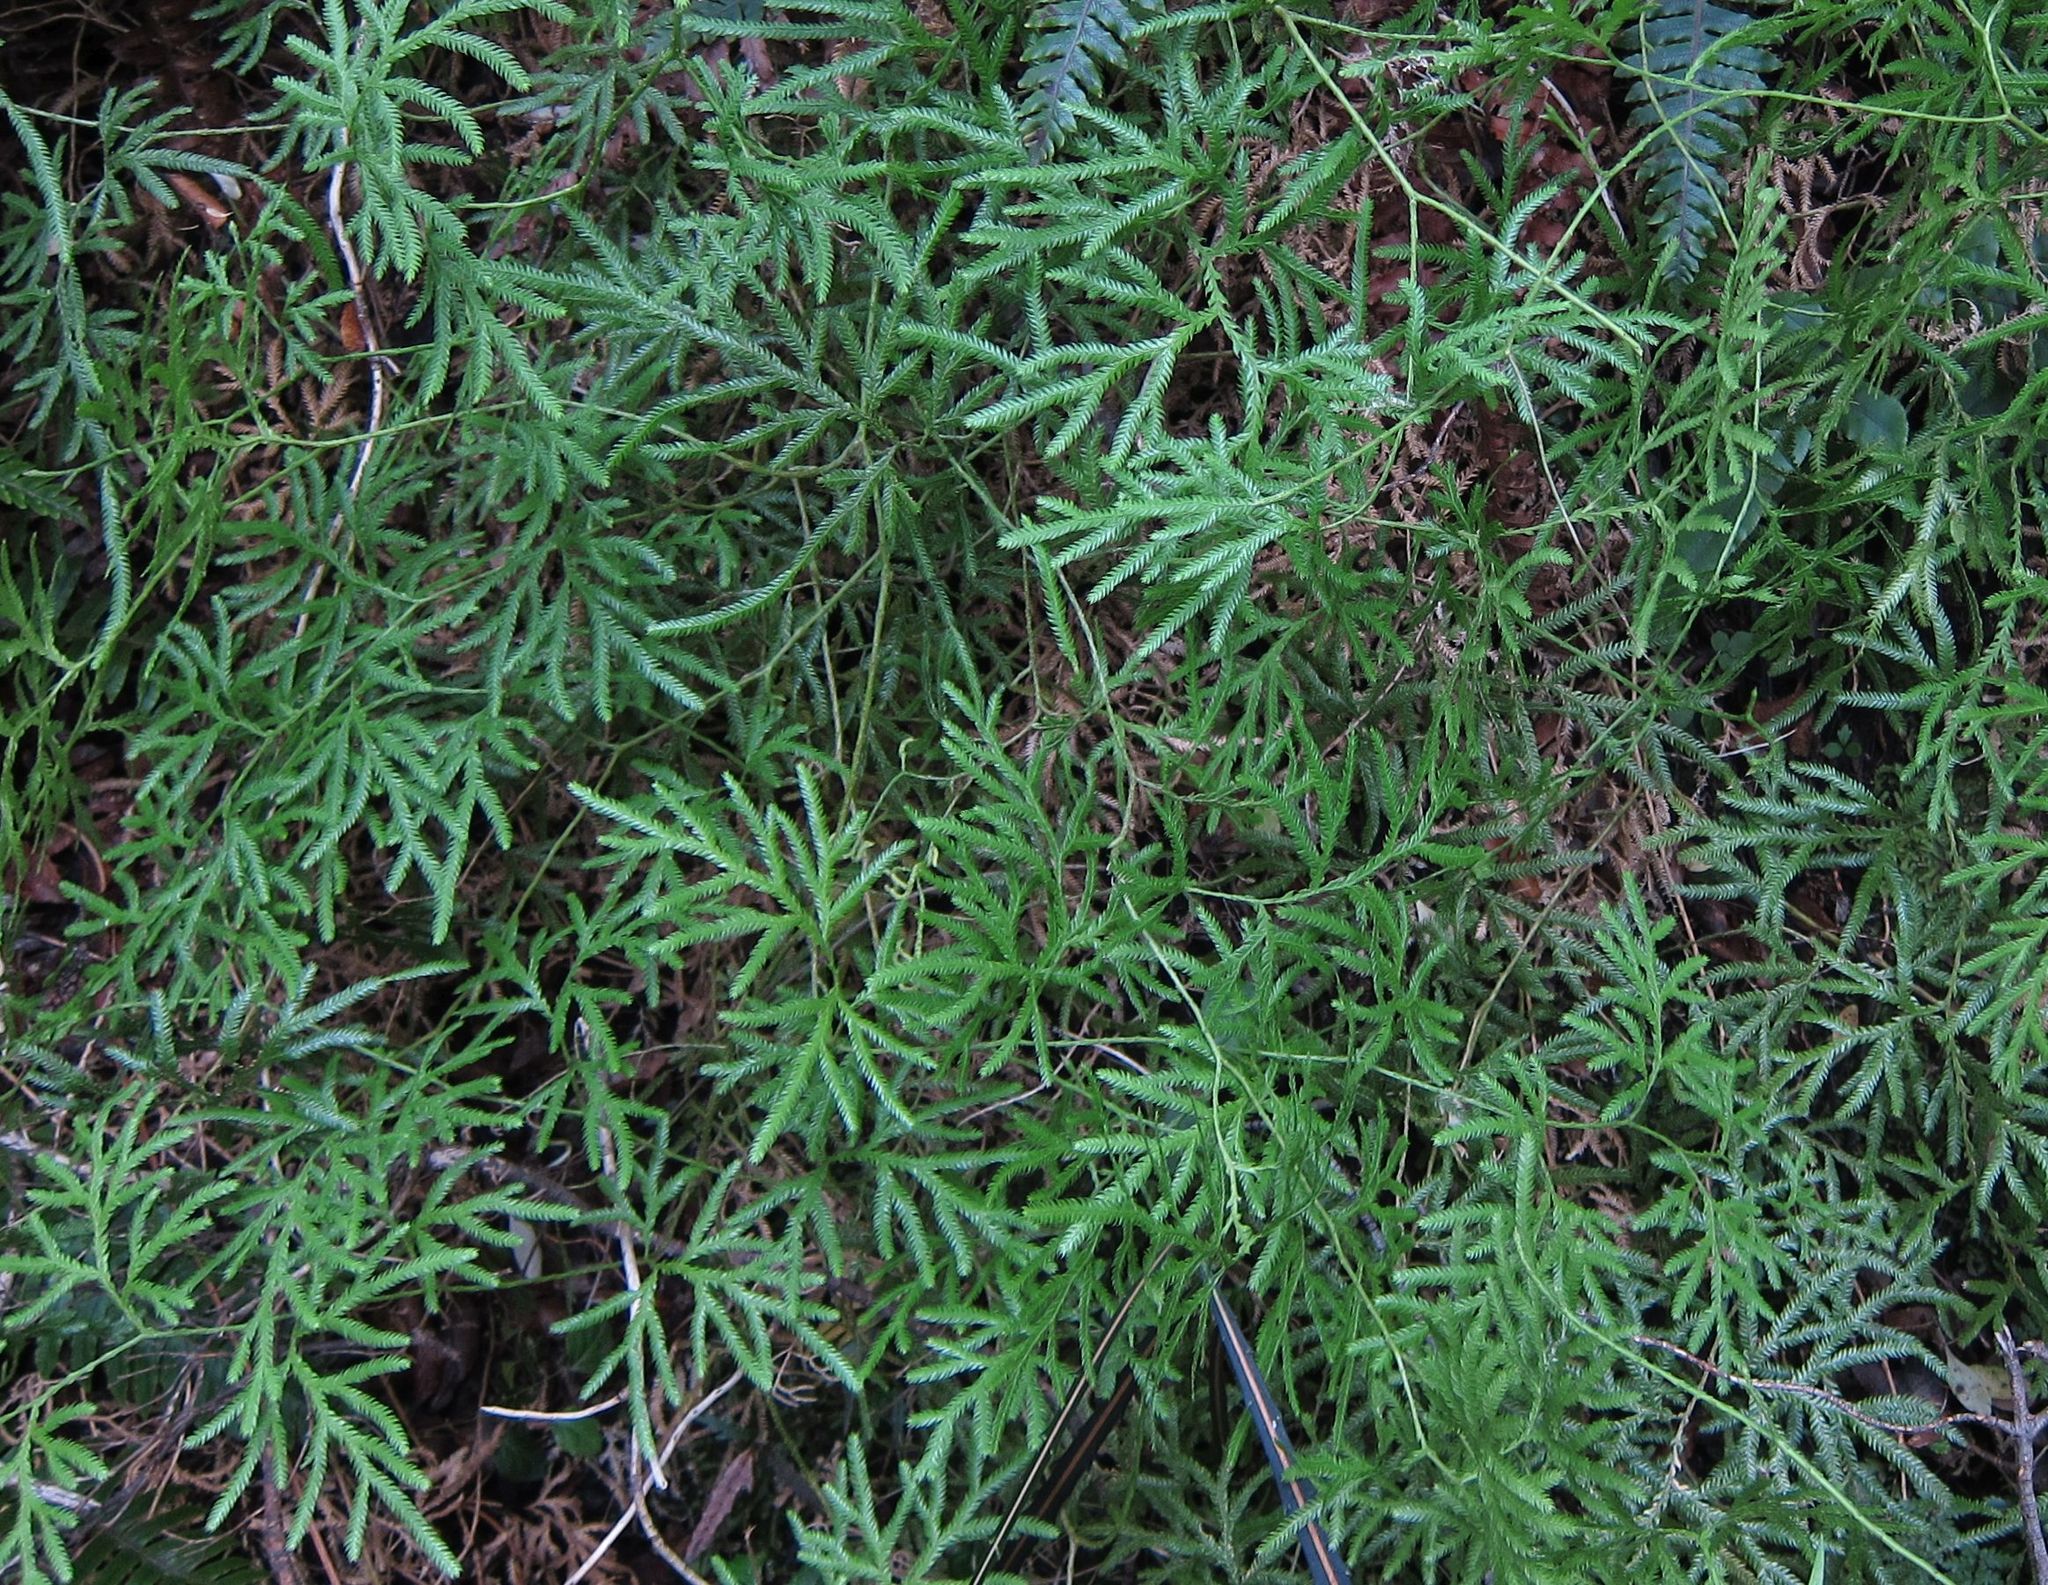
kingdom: Plantae
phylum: Tracheophyta
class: Lycopodiopsida
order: Lycopodiales
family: Lycopodiaceae
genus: Lycopodium
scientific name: Lycopodium volubile
